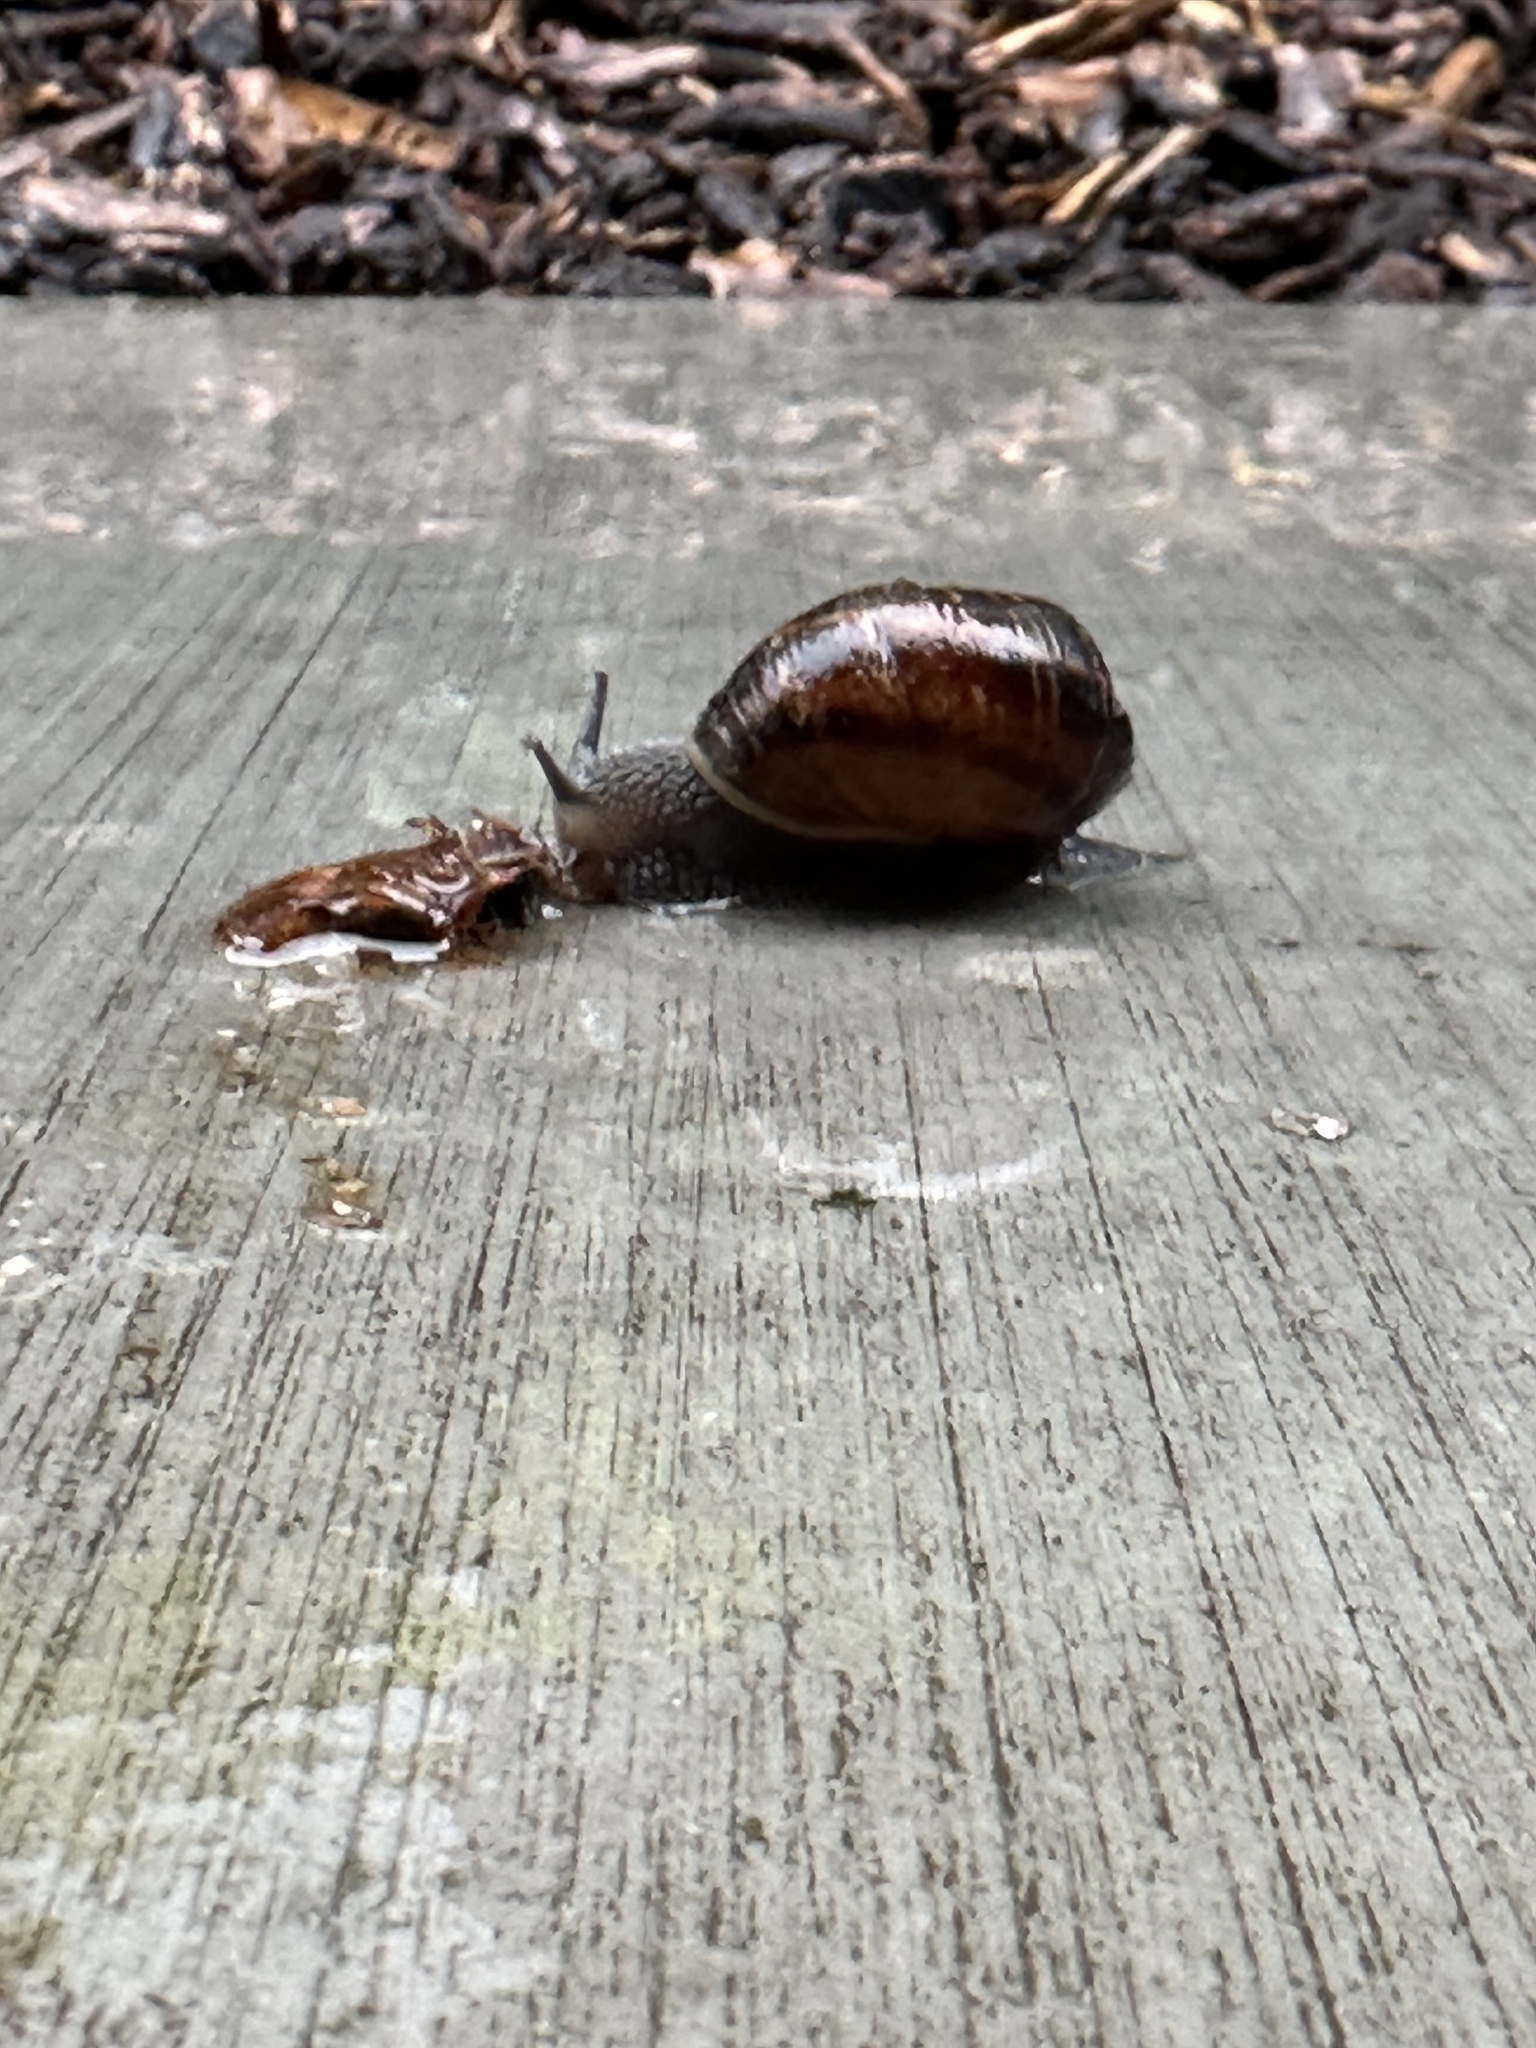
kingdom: Animalia
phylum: Mollusca
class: Gastropoda
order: Stylommatophora
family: Helicidae
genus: Cornu
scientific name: Cornu aspersum
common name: Brown garden snail
